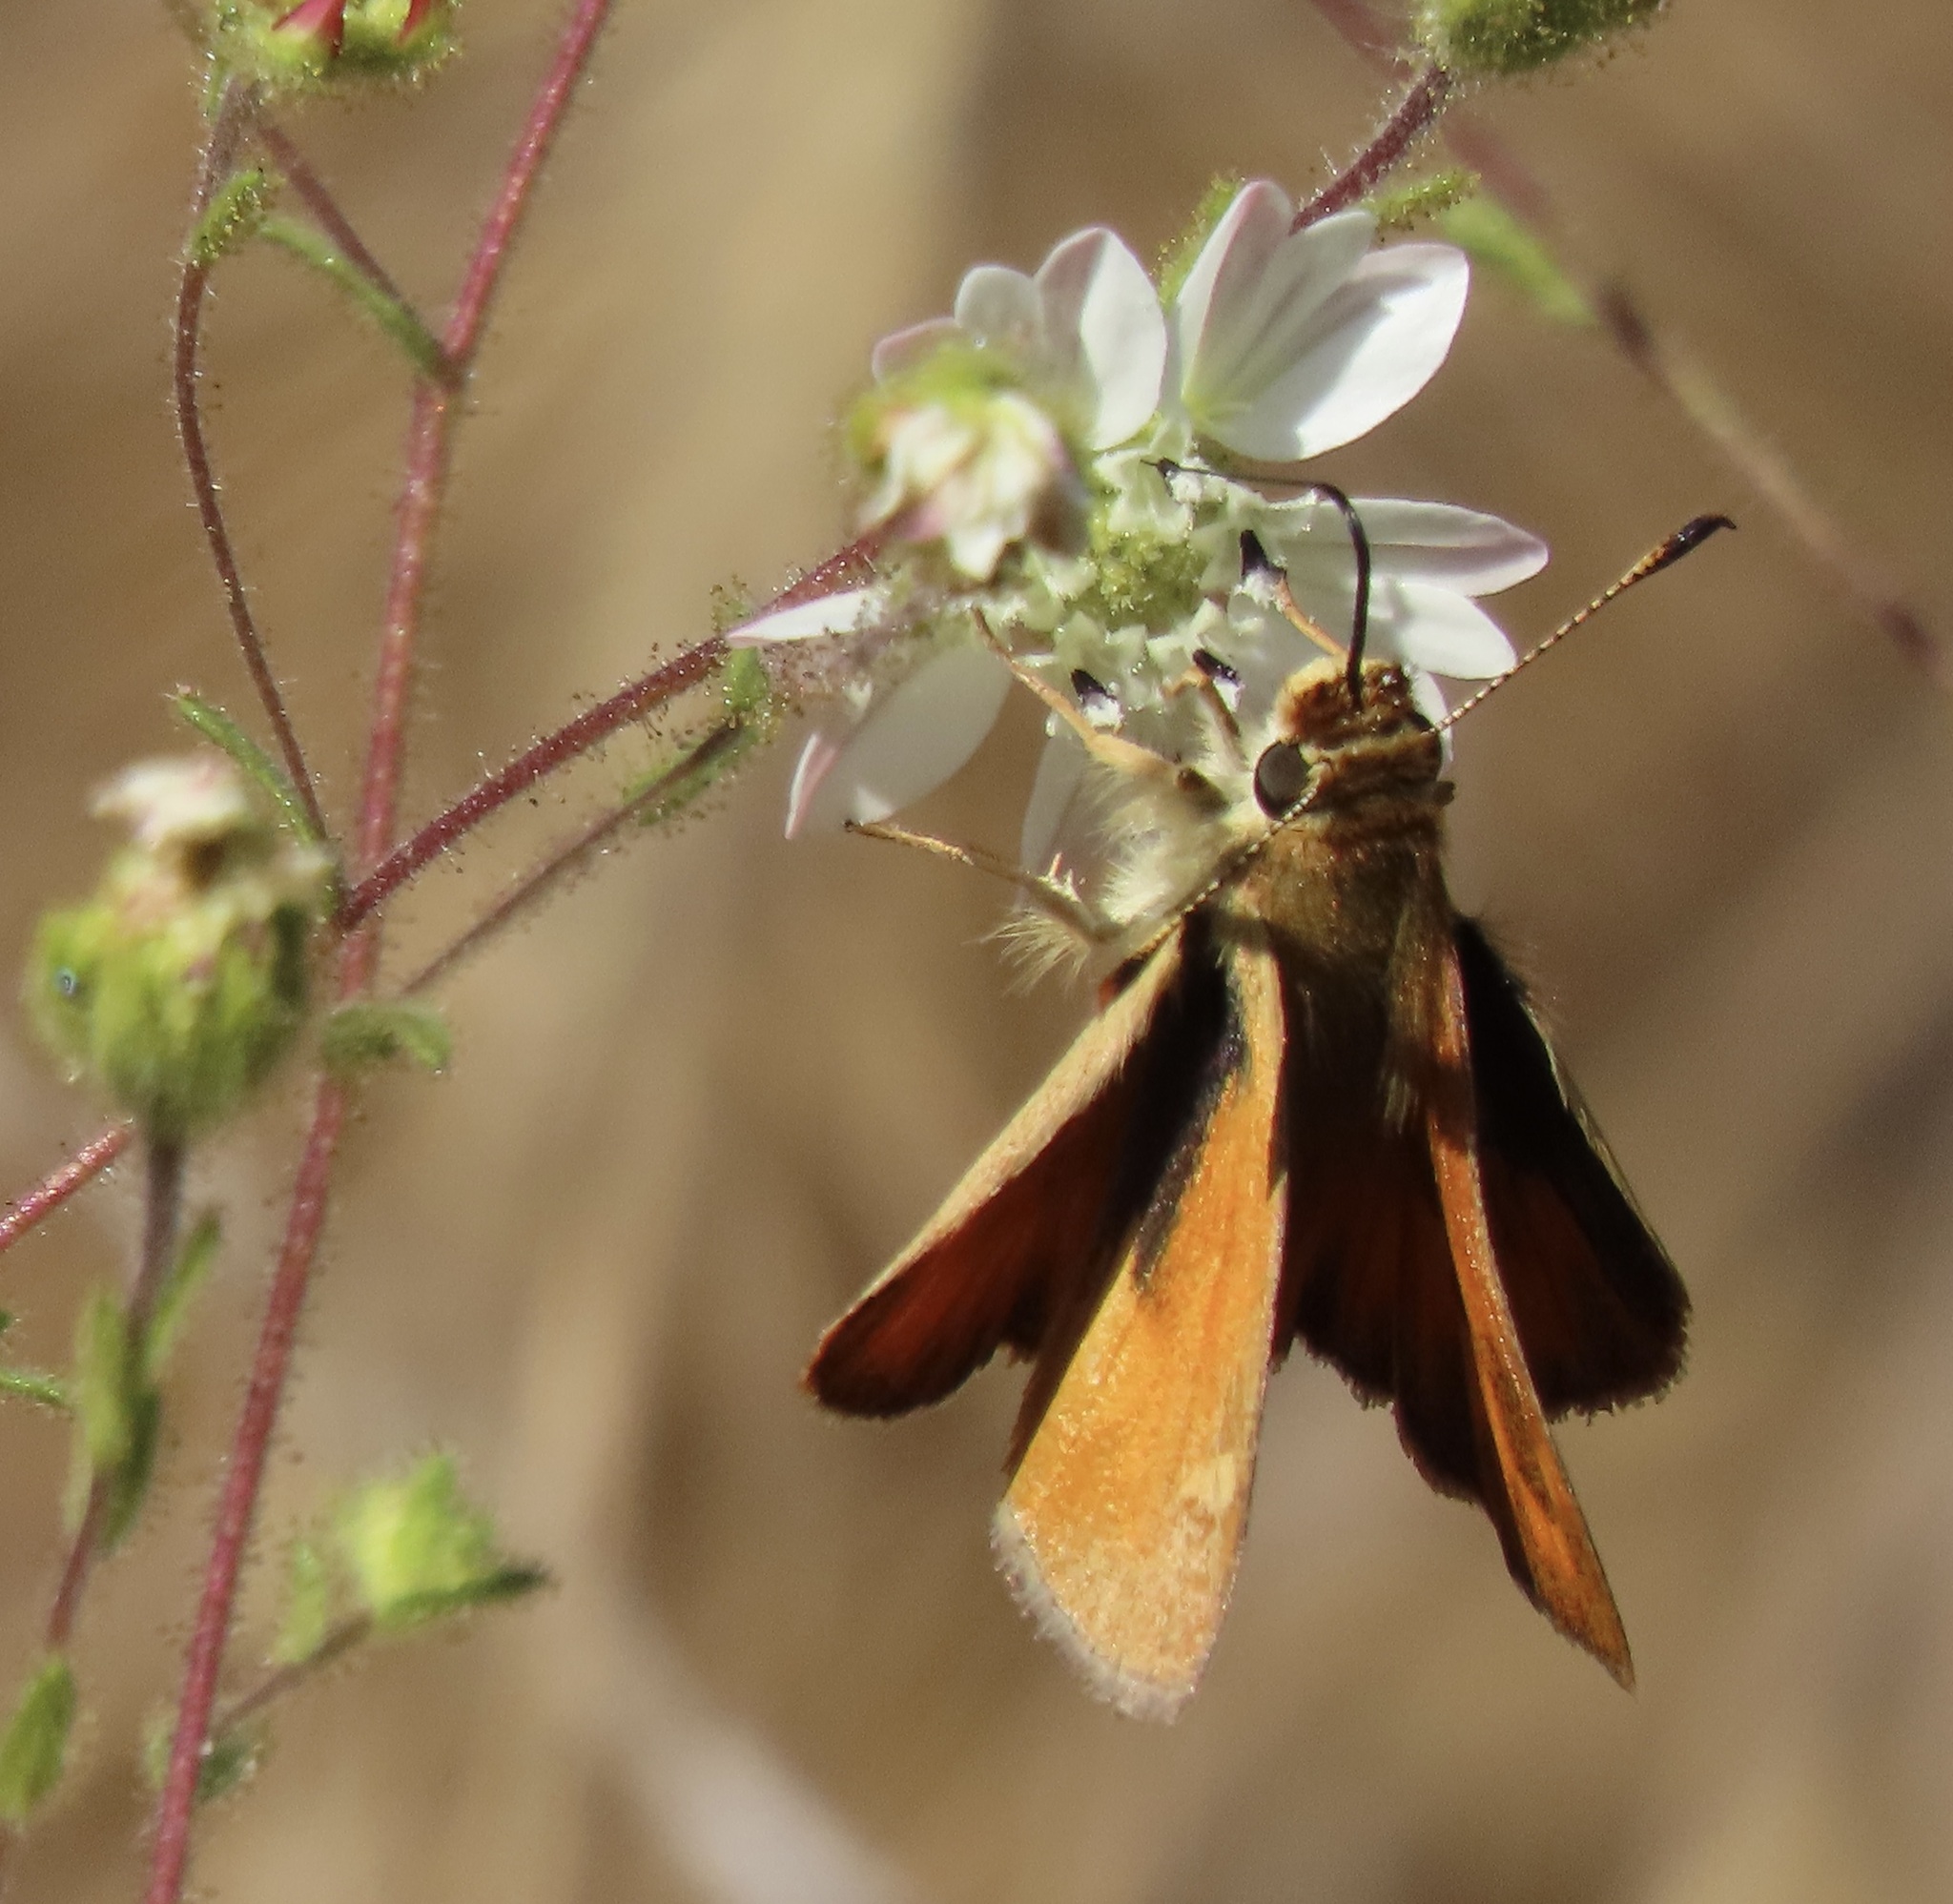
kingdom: Animalia
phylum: Arthropoda
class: Insecta
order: Lepidoptera
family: Hesperiidae
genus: Ochlodes
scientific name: Ochlodes sylvanoides
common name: Woodland skipper
